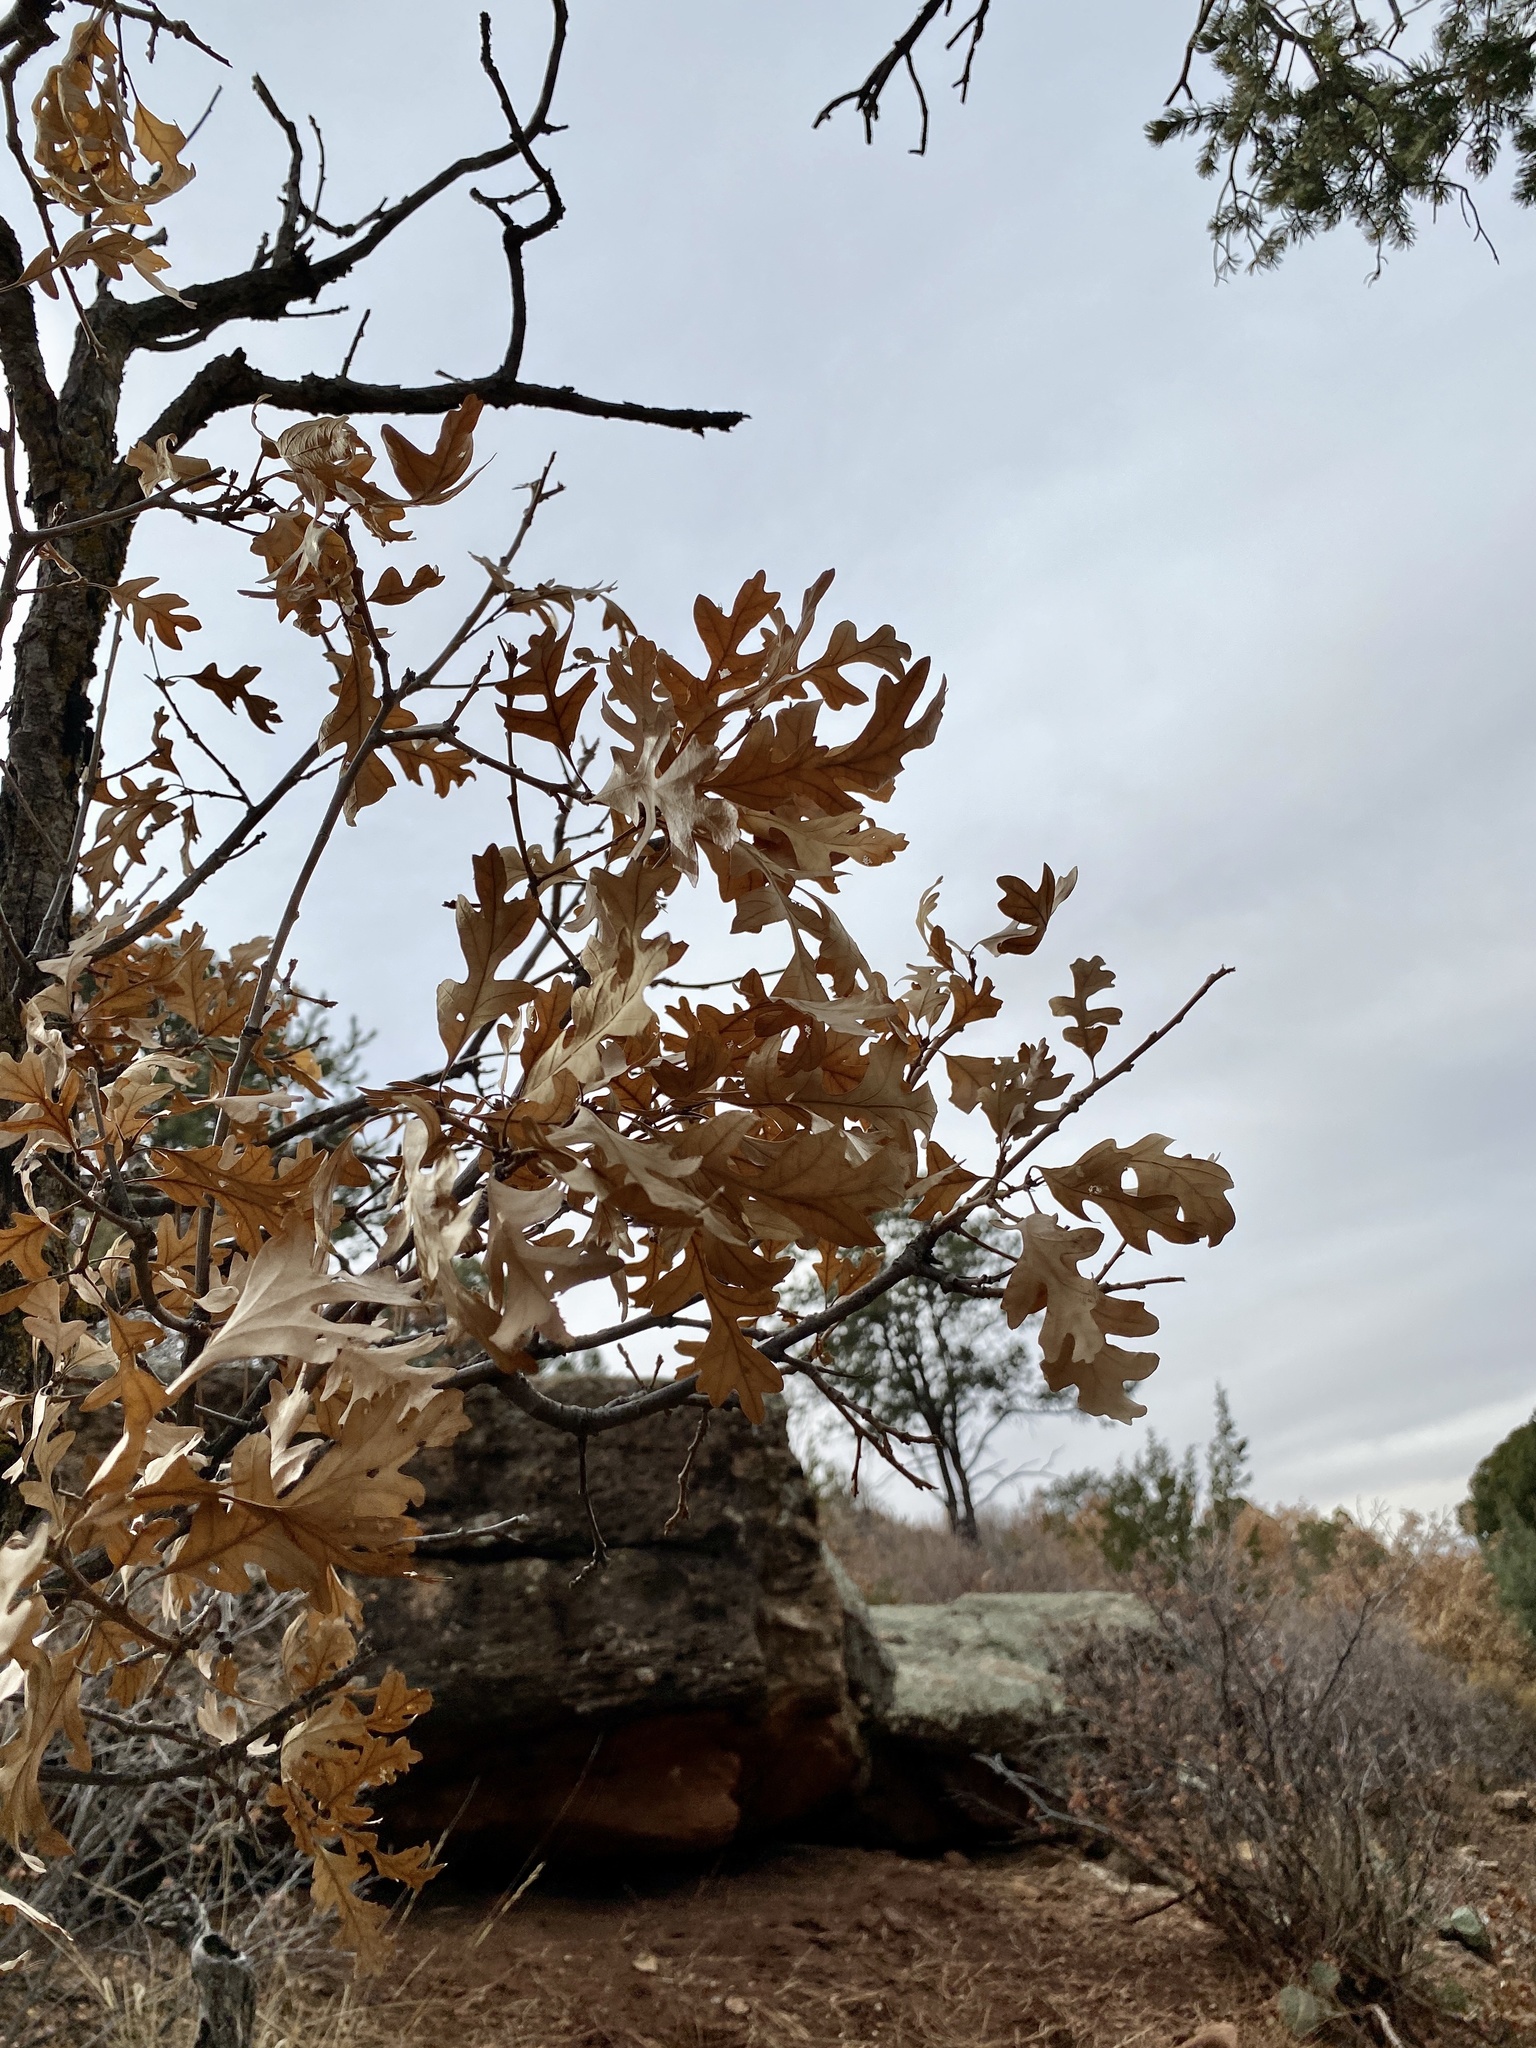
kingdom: Plantae
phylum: Tracheophyta
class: Magnoliopsida
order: Fagales
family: Fagaceae
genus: Quercus
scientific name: Quercus gambelii
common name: Gambel oak
